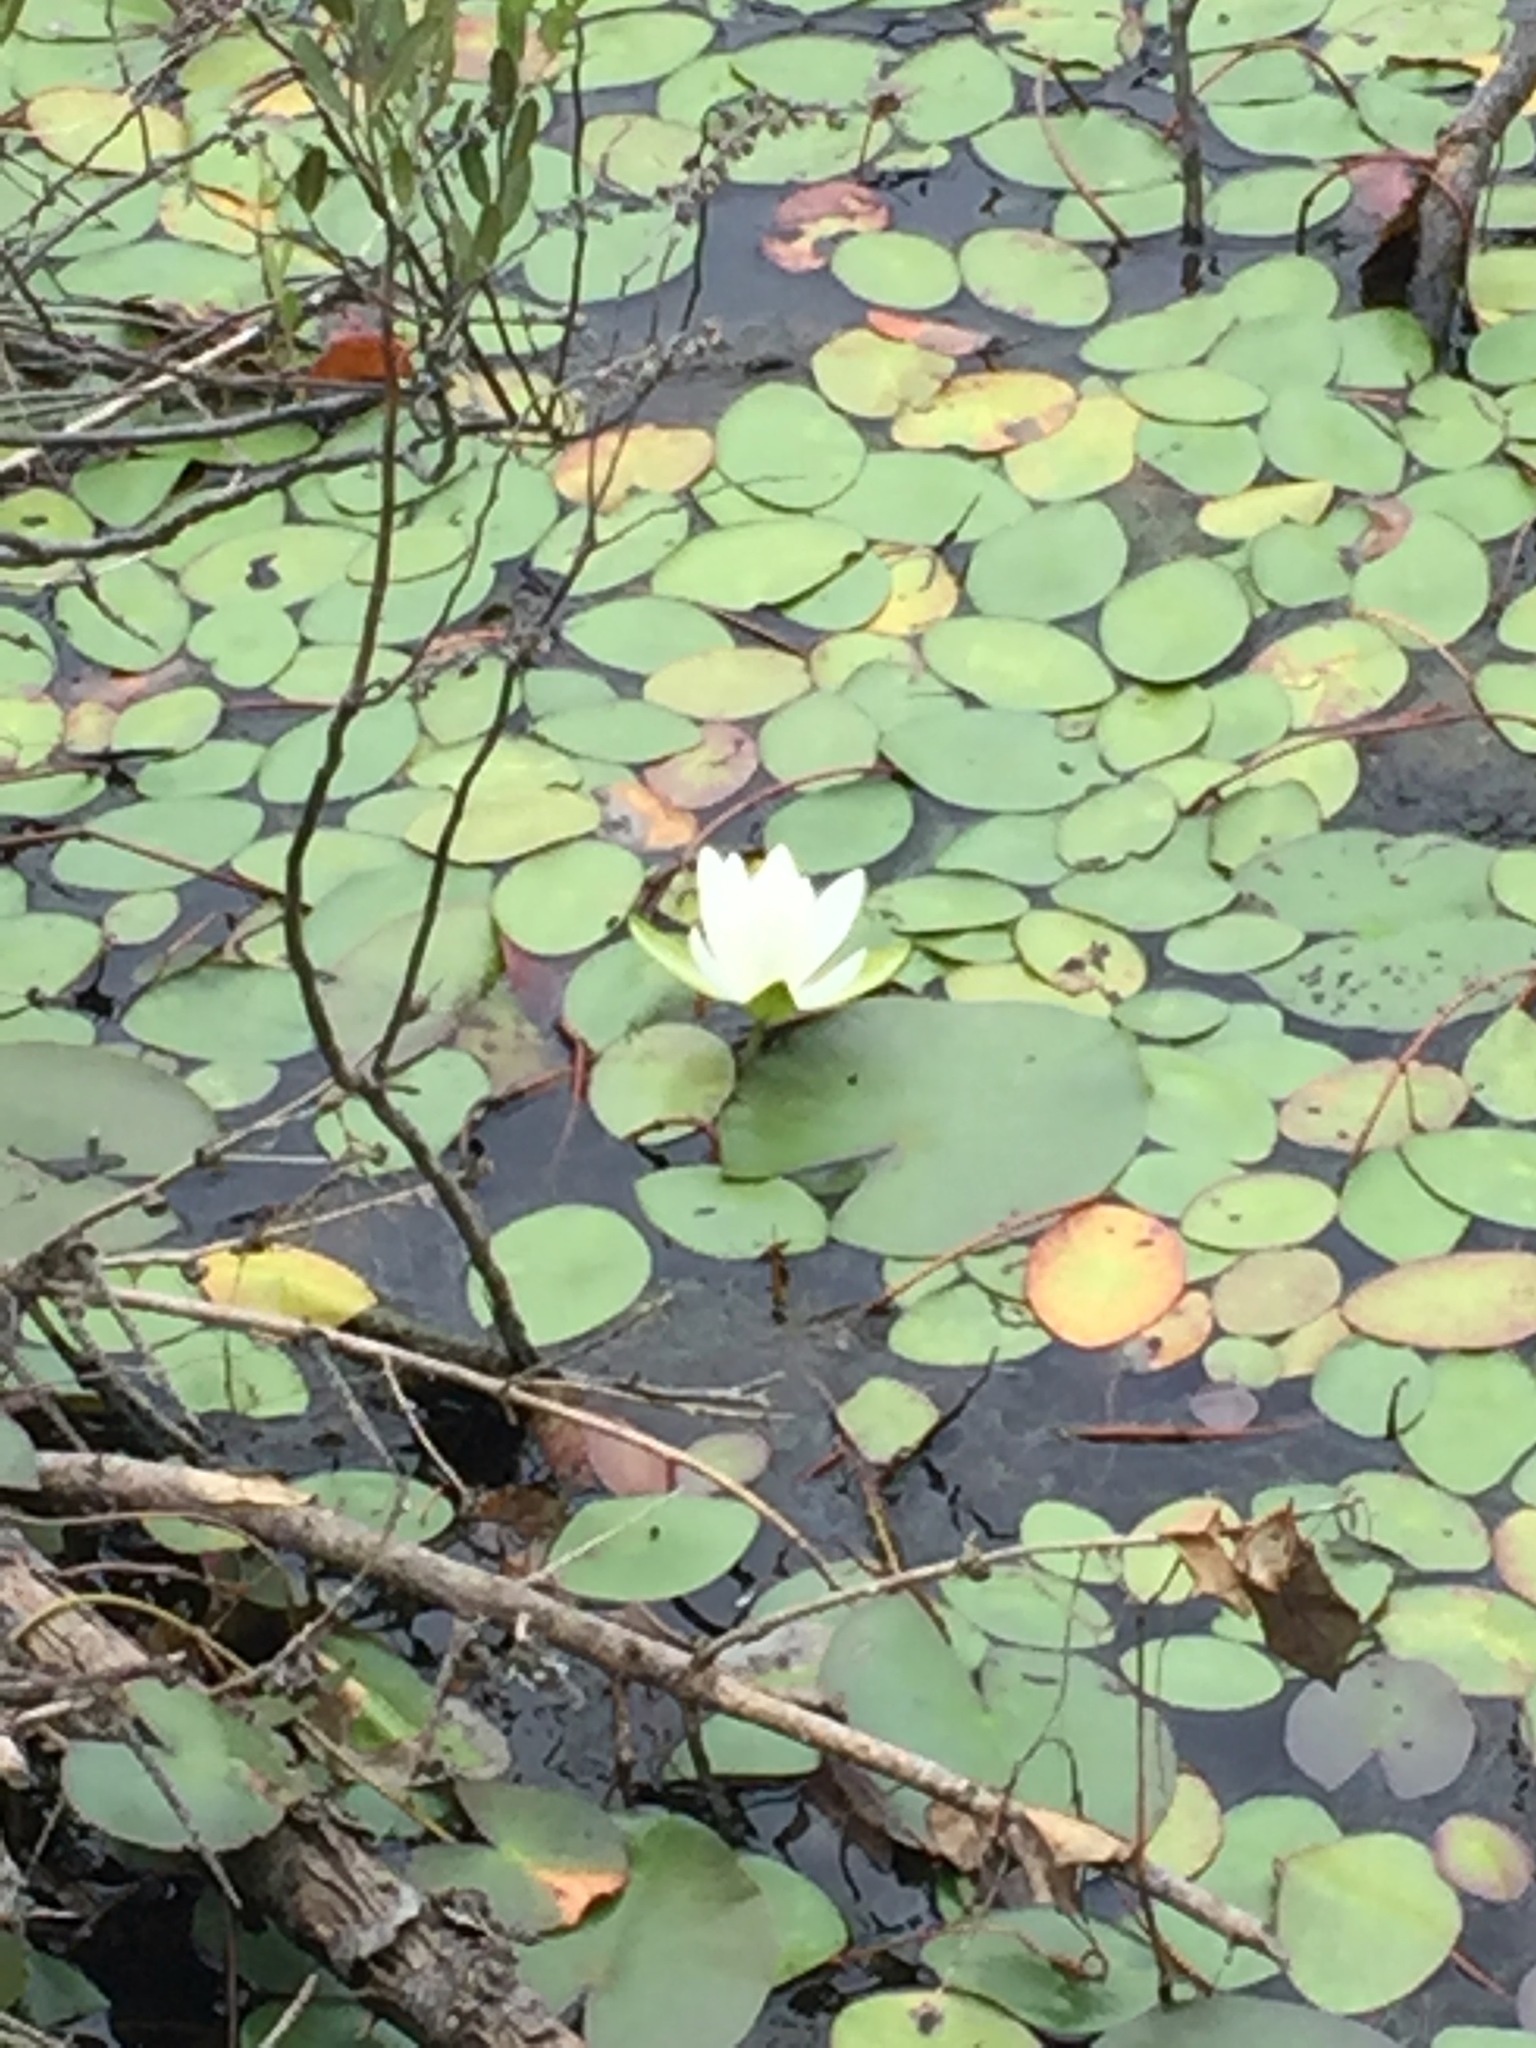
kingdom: Plantae
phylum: Tracheophyta
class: Magnoliopsida
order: Nymphaeales
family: Nymphaeaceae
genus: Nymphaea
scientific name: Nymphaea odorata
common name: Fragrant water-lily
